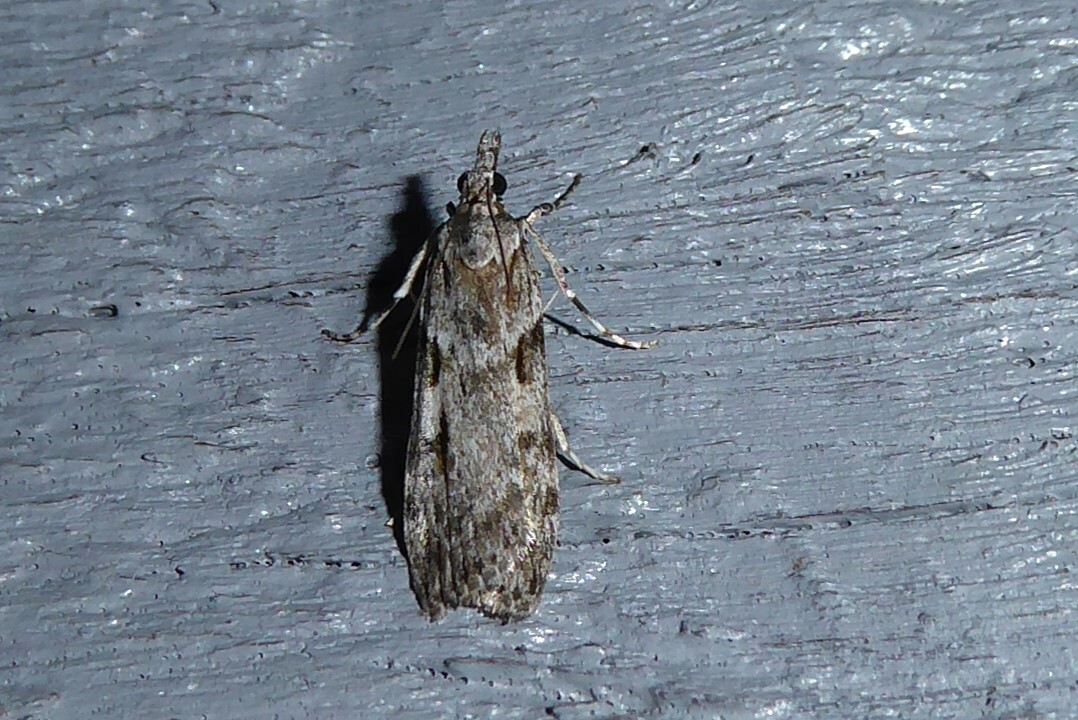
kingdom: Animalia
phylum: Arthropoda
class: Insecta
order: Lepidoptera
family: Crambidae
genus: Scoparia
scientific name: Scoparia halopis
